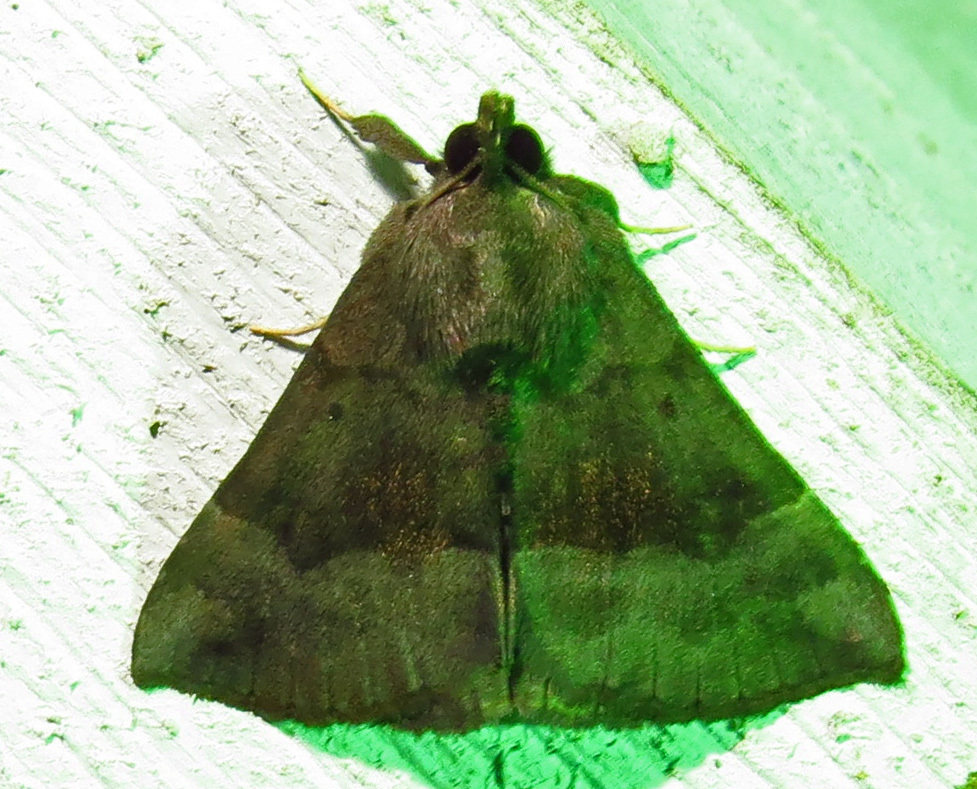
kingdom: Animalia
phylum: Arthropoda
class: Insecta
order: Lepidoptera
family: Erebidae
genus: Hypena
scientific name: Hypena madefactalis
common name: Gray-edged snout
